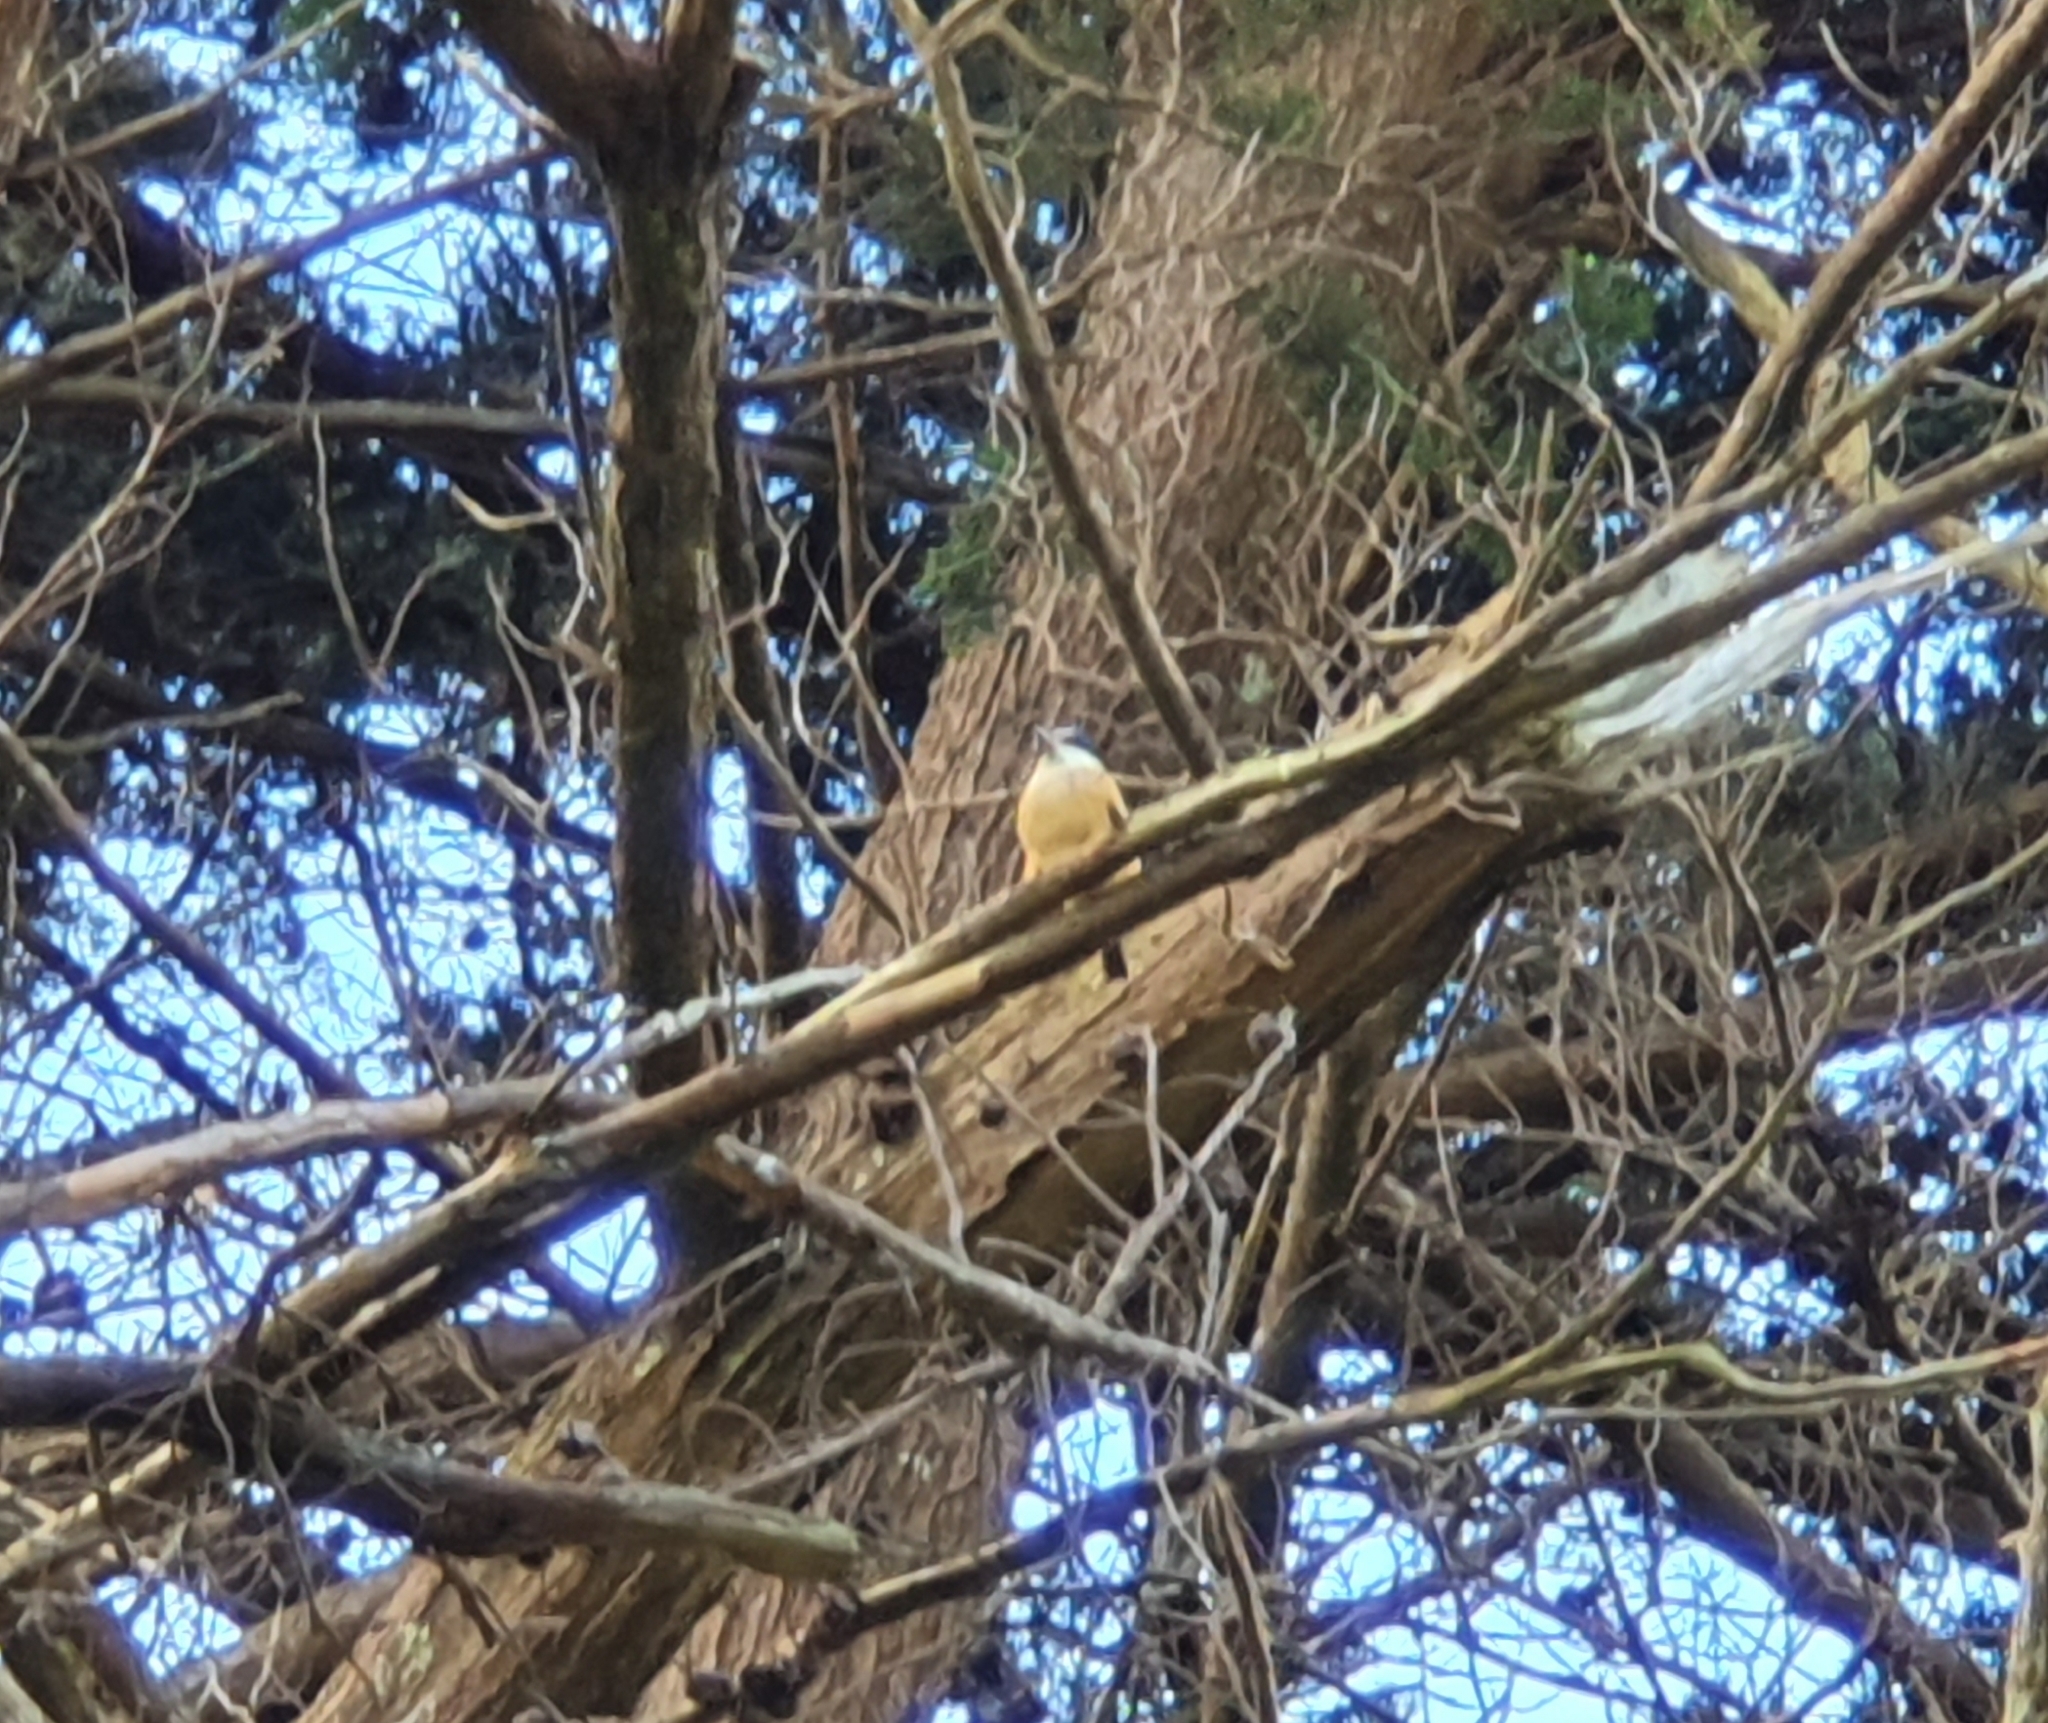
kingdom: Animalia
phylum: Chordata
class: Aves
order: Coraciiformes
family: Alcedinidae
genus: Todiramphus
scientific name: Todiramphus sanctus
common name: Sacred kingfisher
